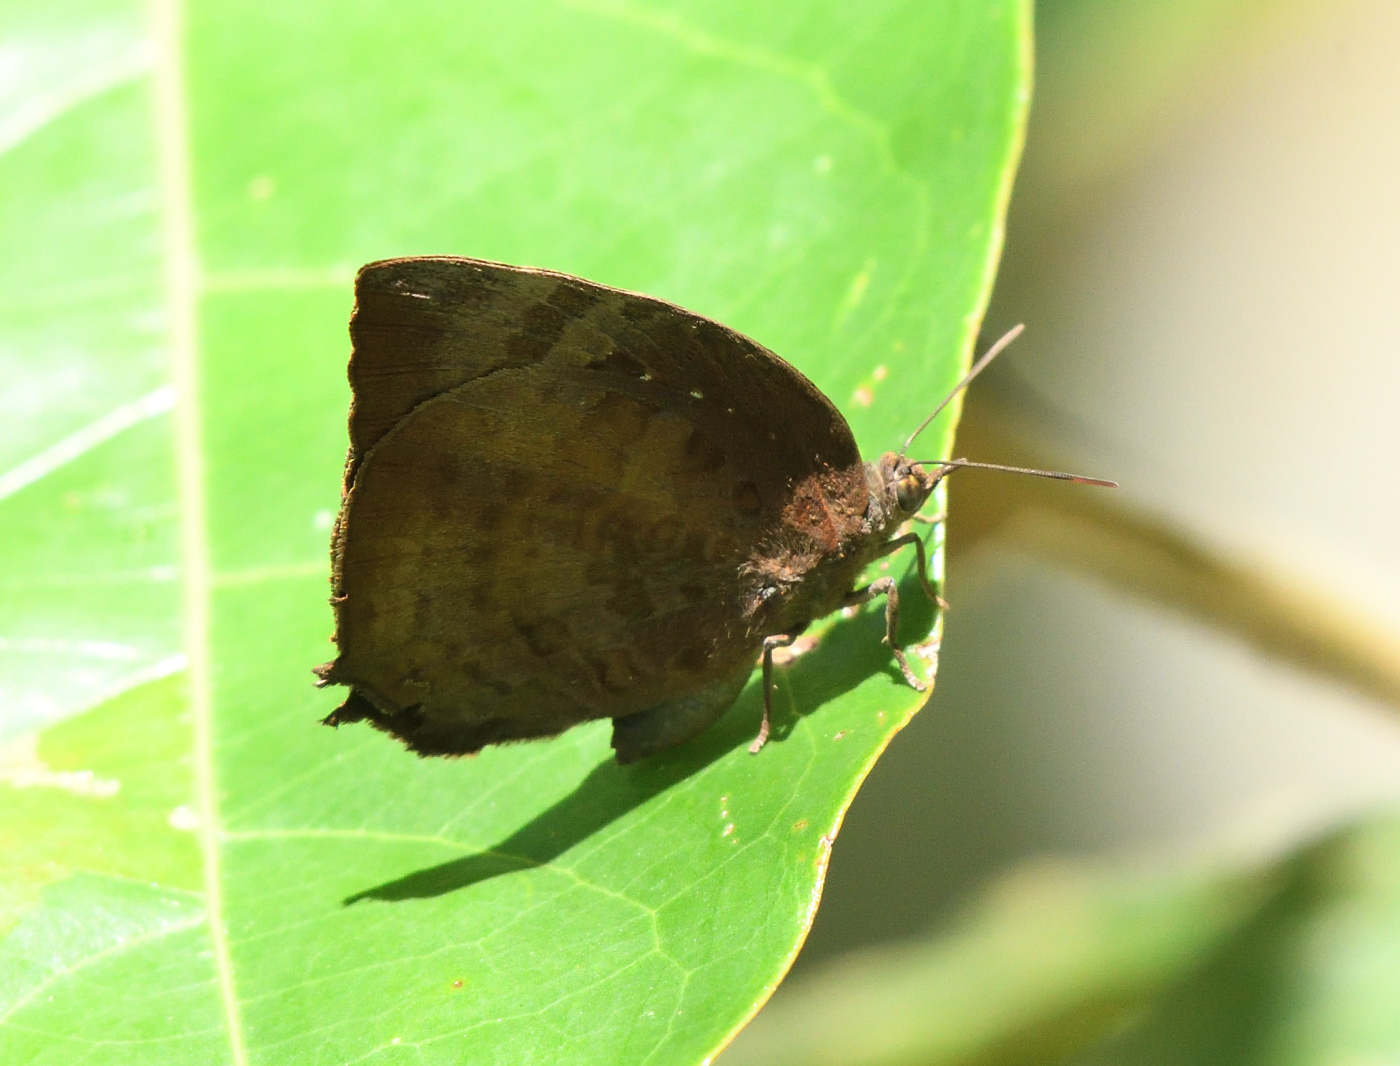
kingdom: Animalia
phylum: Arthropoda
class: Insecta
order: Lepidoptera
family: Lycaenidae
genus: Arhopala
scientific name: Arhopala centaurus
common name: Dull oak-blue
